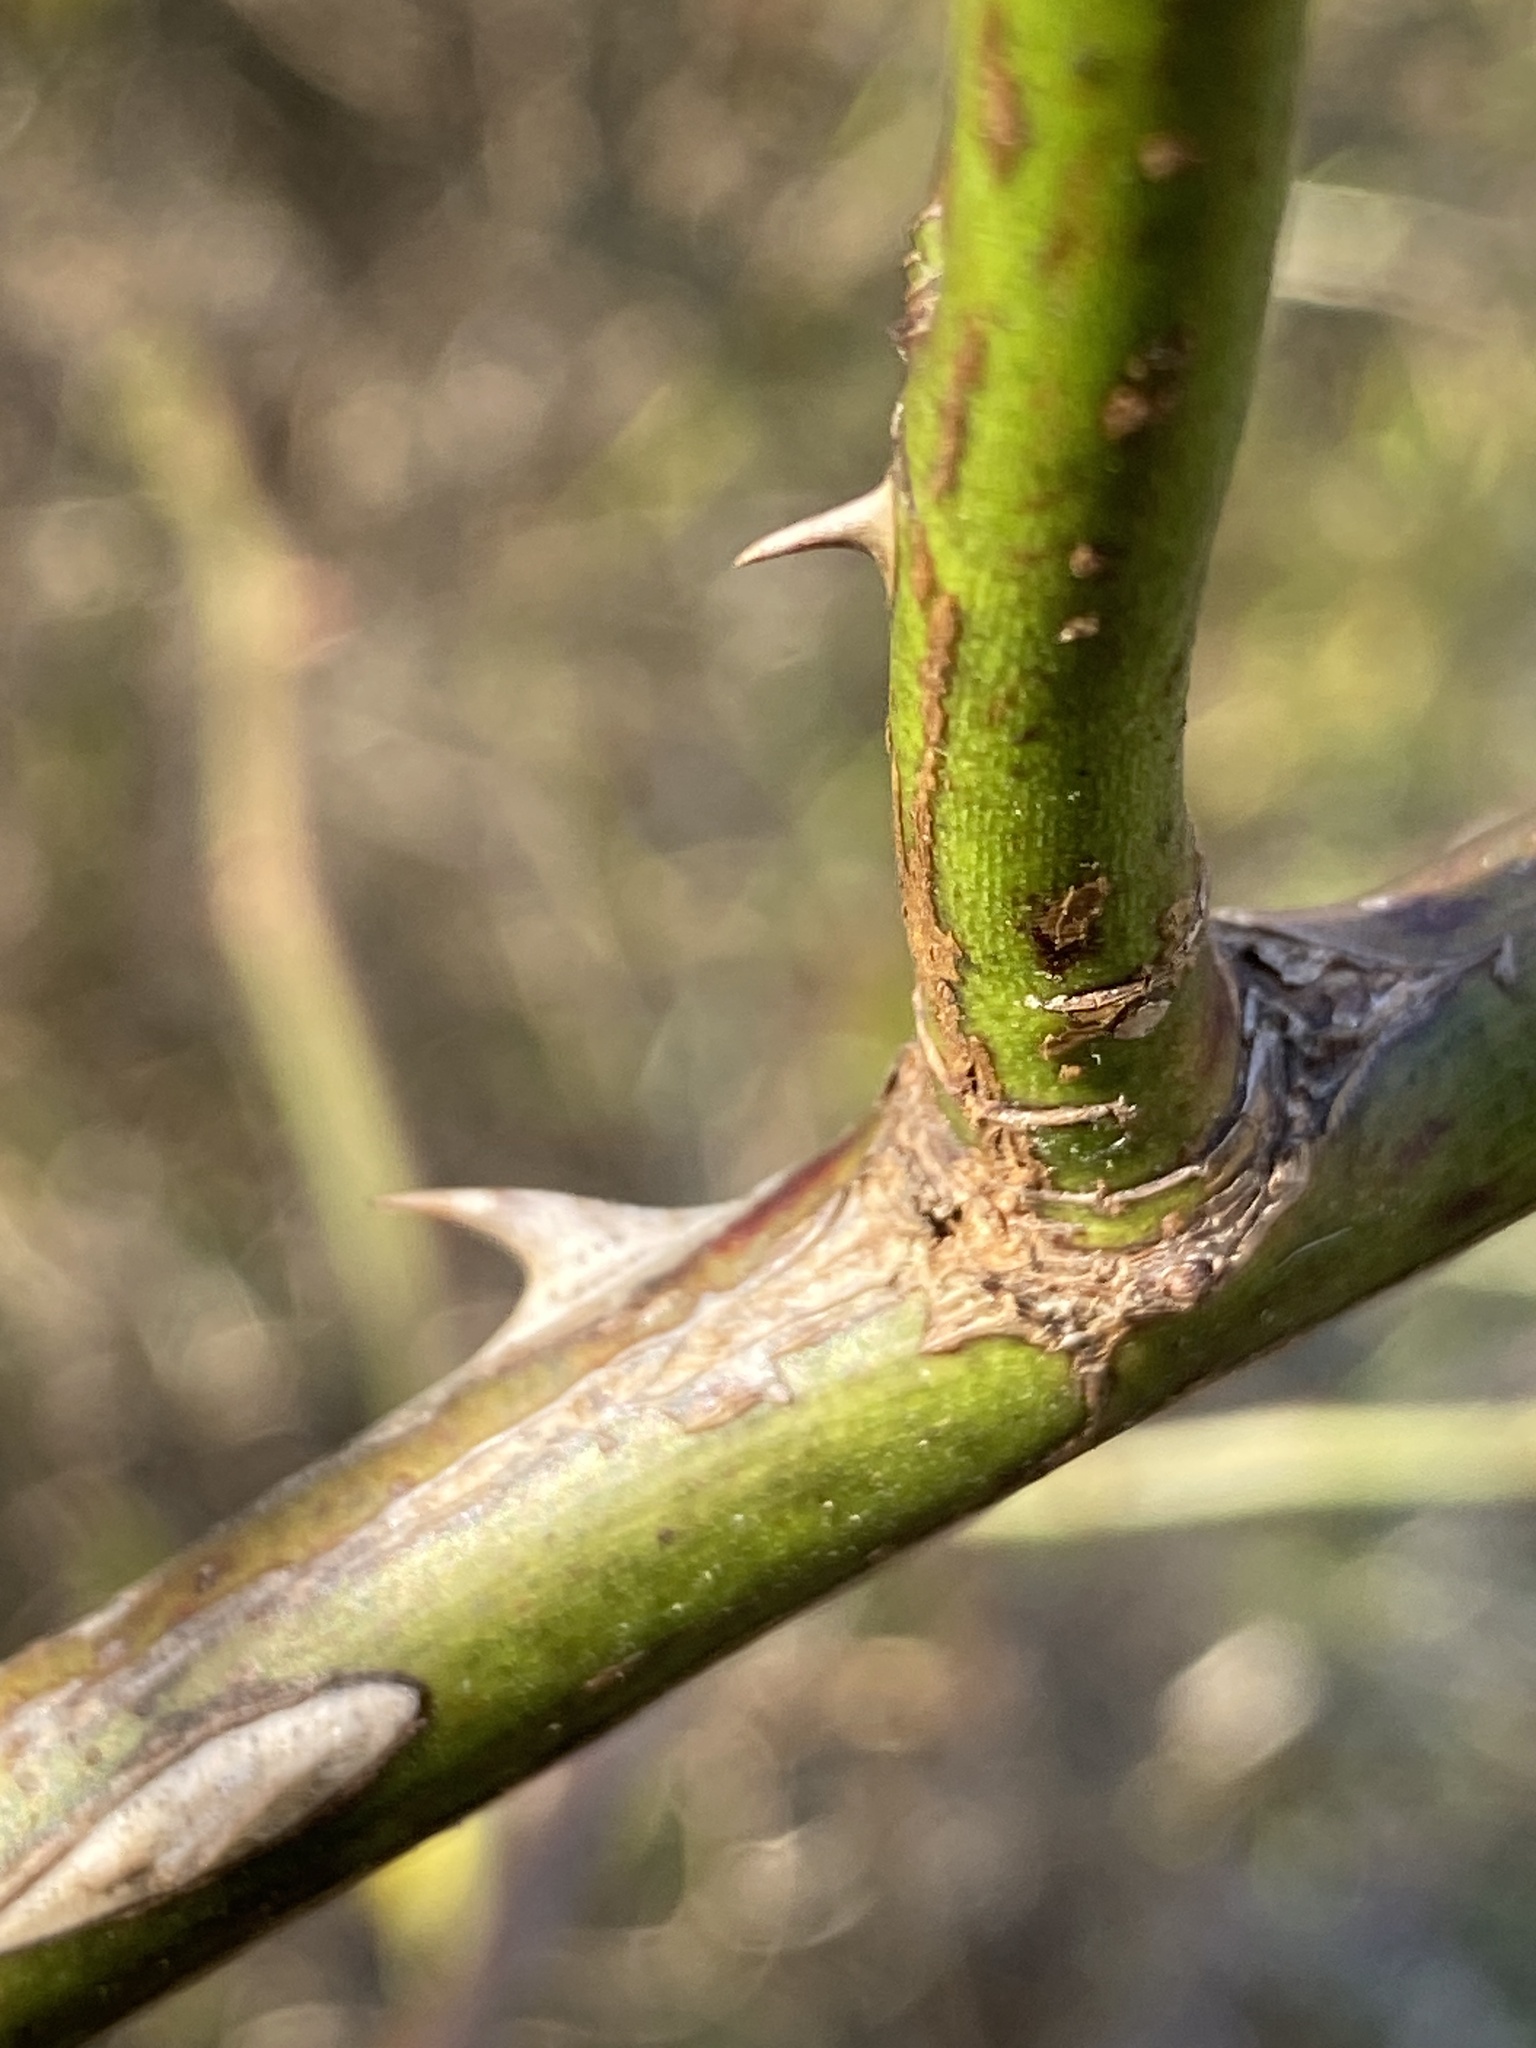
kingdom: Plantae
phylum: Tracheophyta
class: Magnoliopsida
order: Rosales
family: Rosaceae
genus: Rosa
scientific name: Rosa multiflora
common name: Multiflora rose
